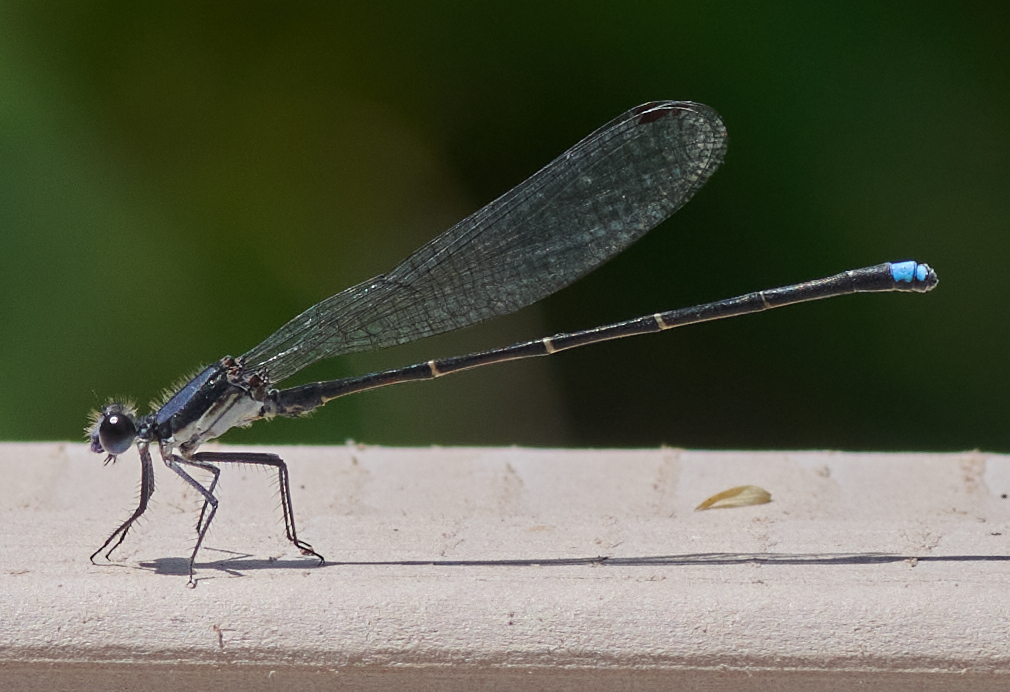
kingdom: Animalia
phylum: Arthropoda
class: Insecta
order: Odonata
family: Coenagrionidae
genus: Argia
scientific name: Argia tibialis
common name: Blue-tipped dancer
